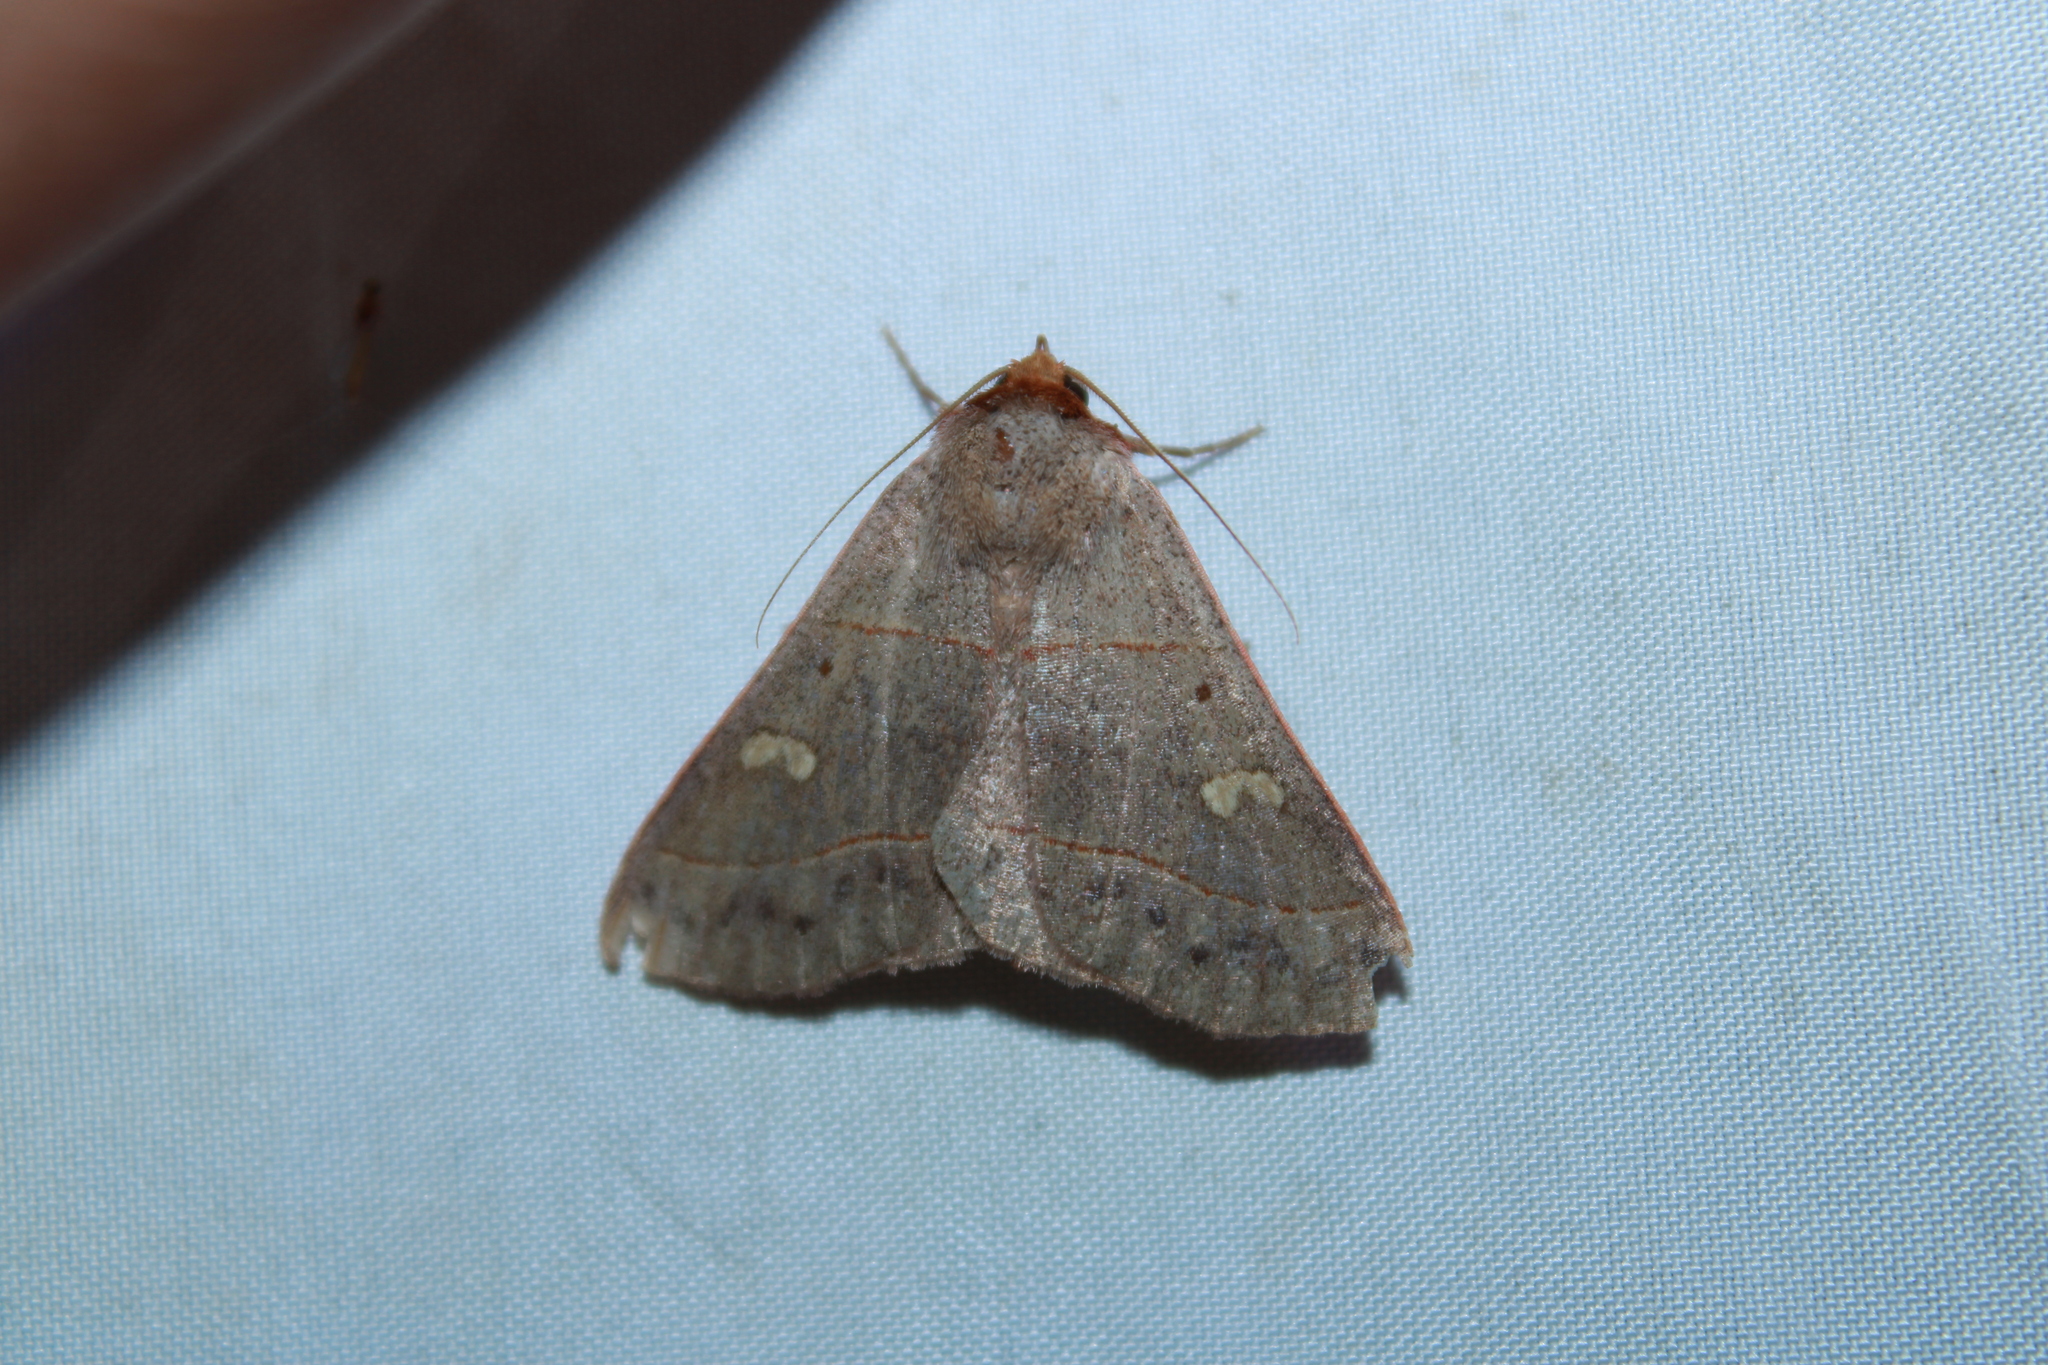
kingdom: Animalia
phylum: Arthropoda
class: Insecta
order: Lepidoptera
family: Erebidae
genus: Panopoda
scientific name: Panopoda rufimargo
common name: Red-lined panopoda moth
